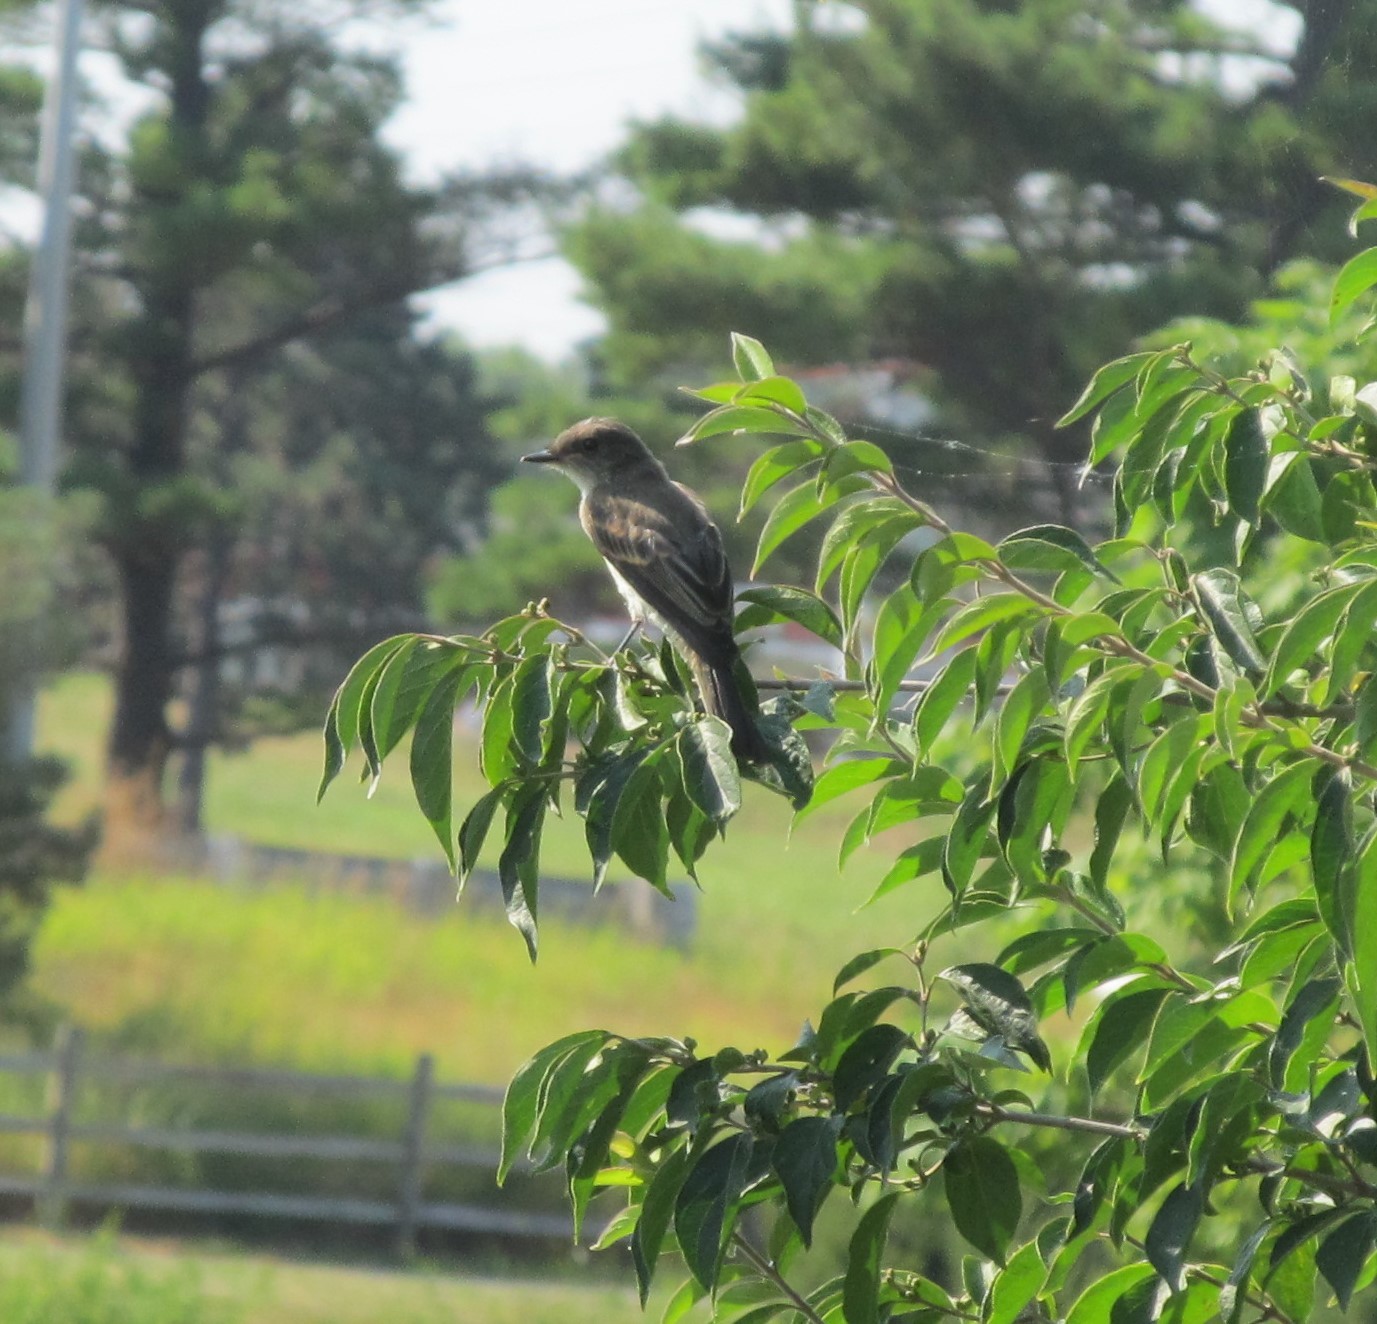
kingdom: Animalia
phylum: Chordata
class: Aves
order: Passeriformes
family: Tyrannidae
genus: Sayornis
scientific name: Sayornis phoebe
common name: Eastern phoebe
